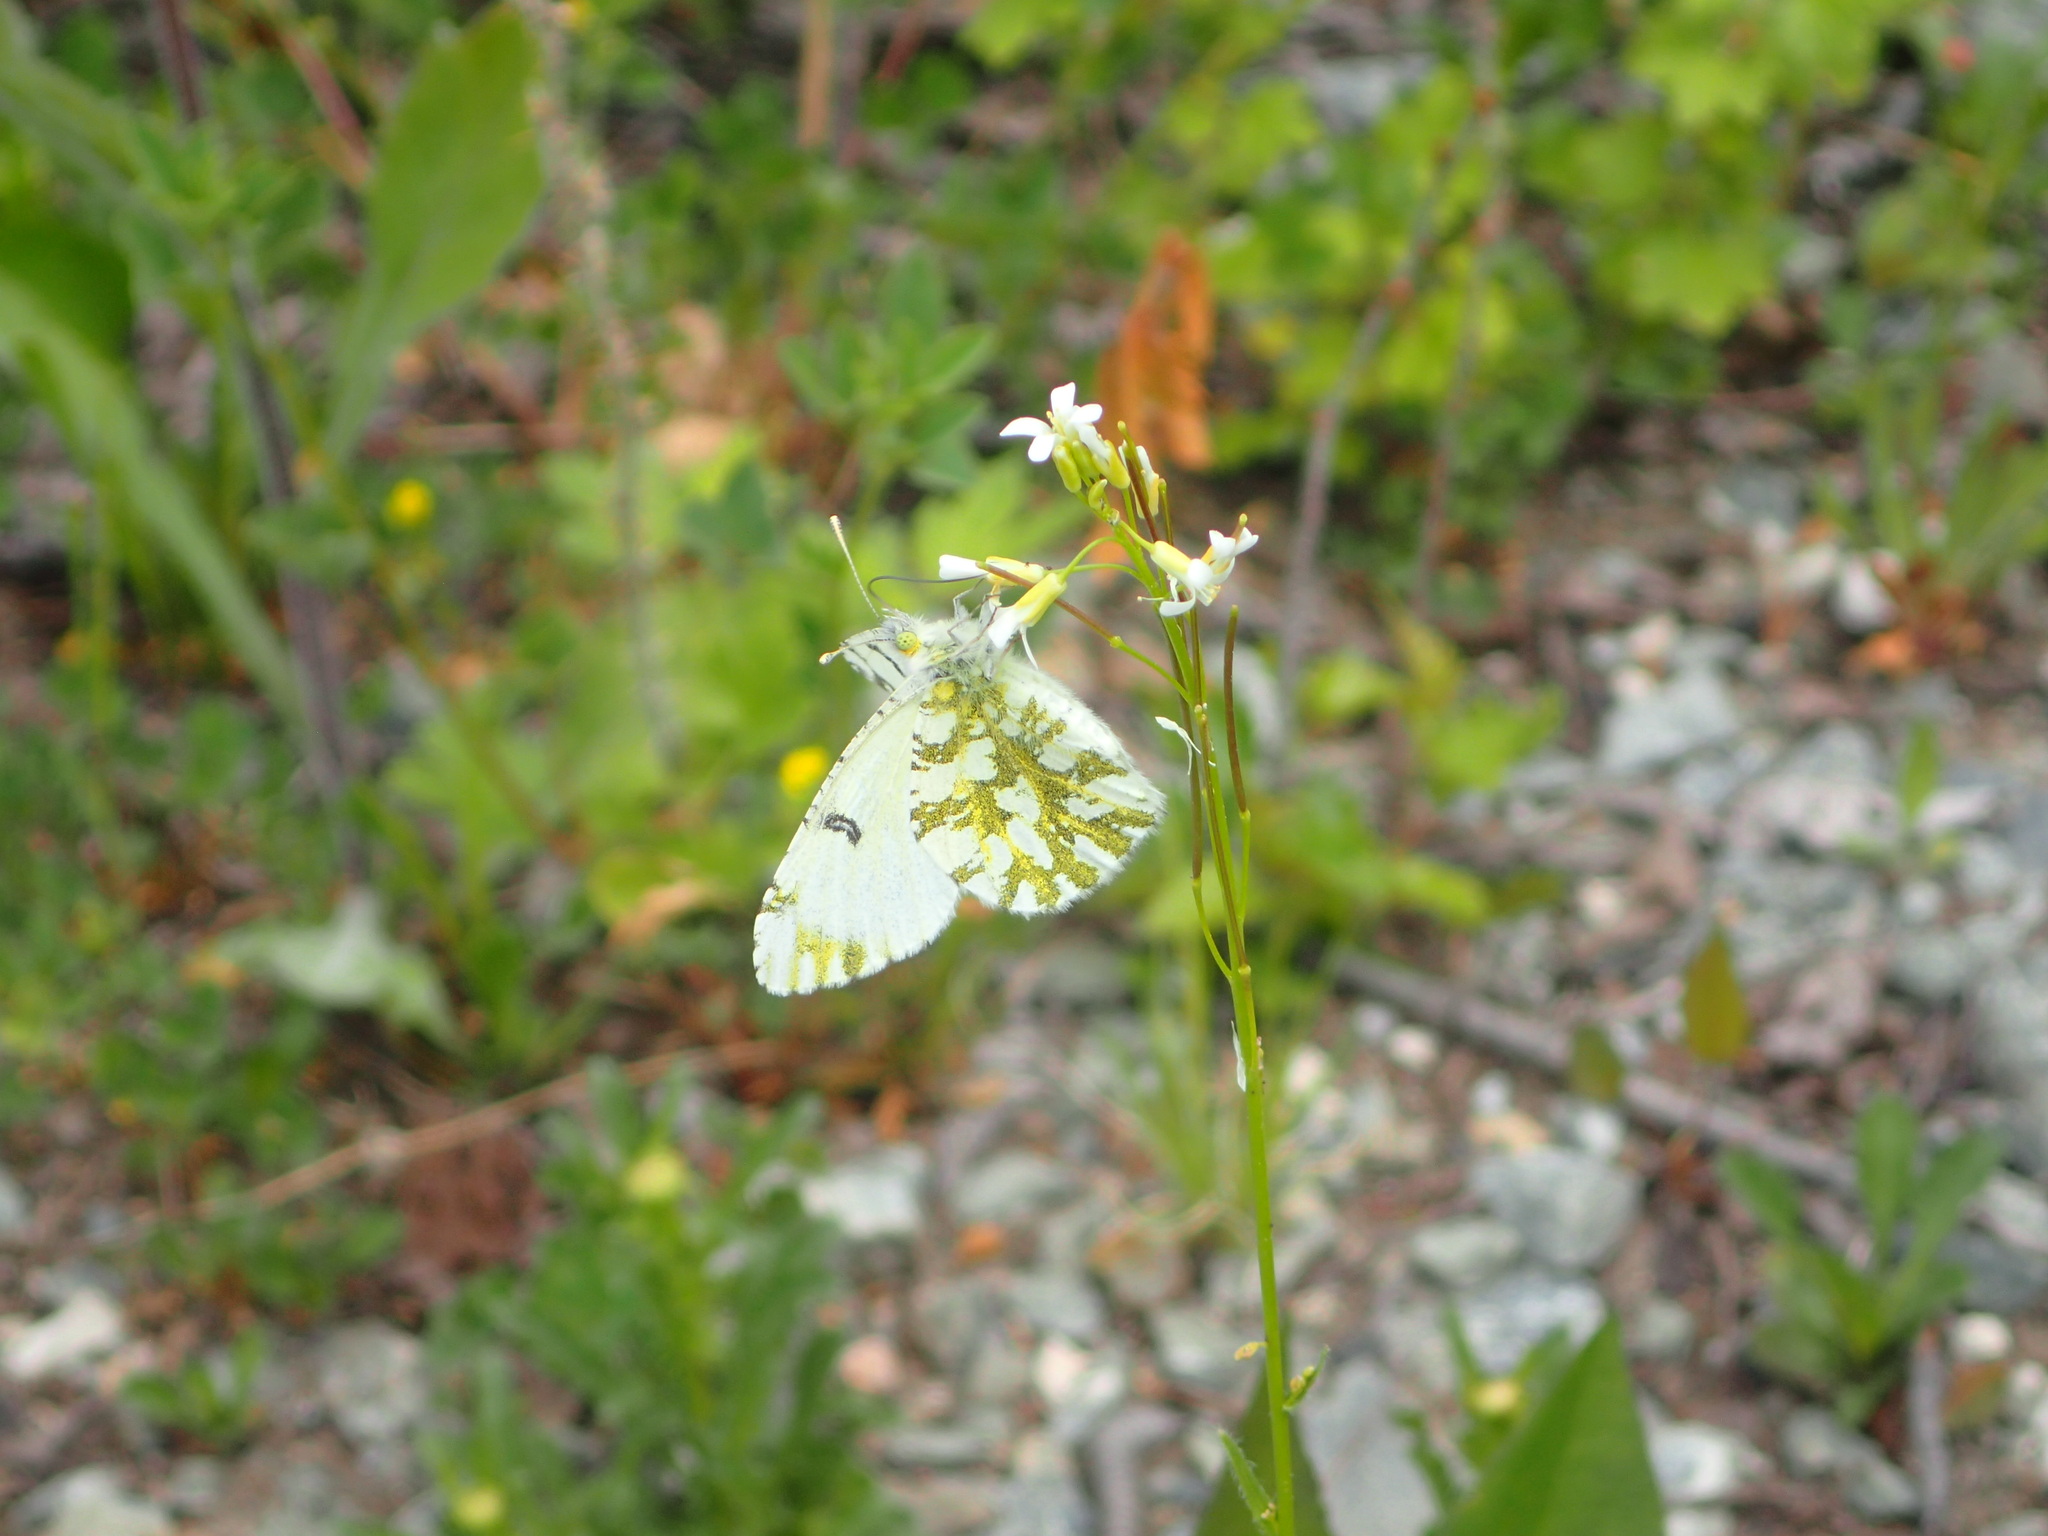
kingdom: Animalia
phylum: Arthropoda
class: Insecta
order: Lepidoptera
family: Pieridae
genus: Euchloe
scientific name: Euchloe ausonides
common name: Creamy marblewing
